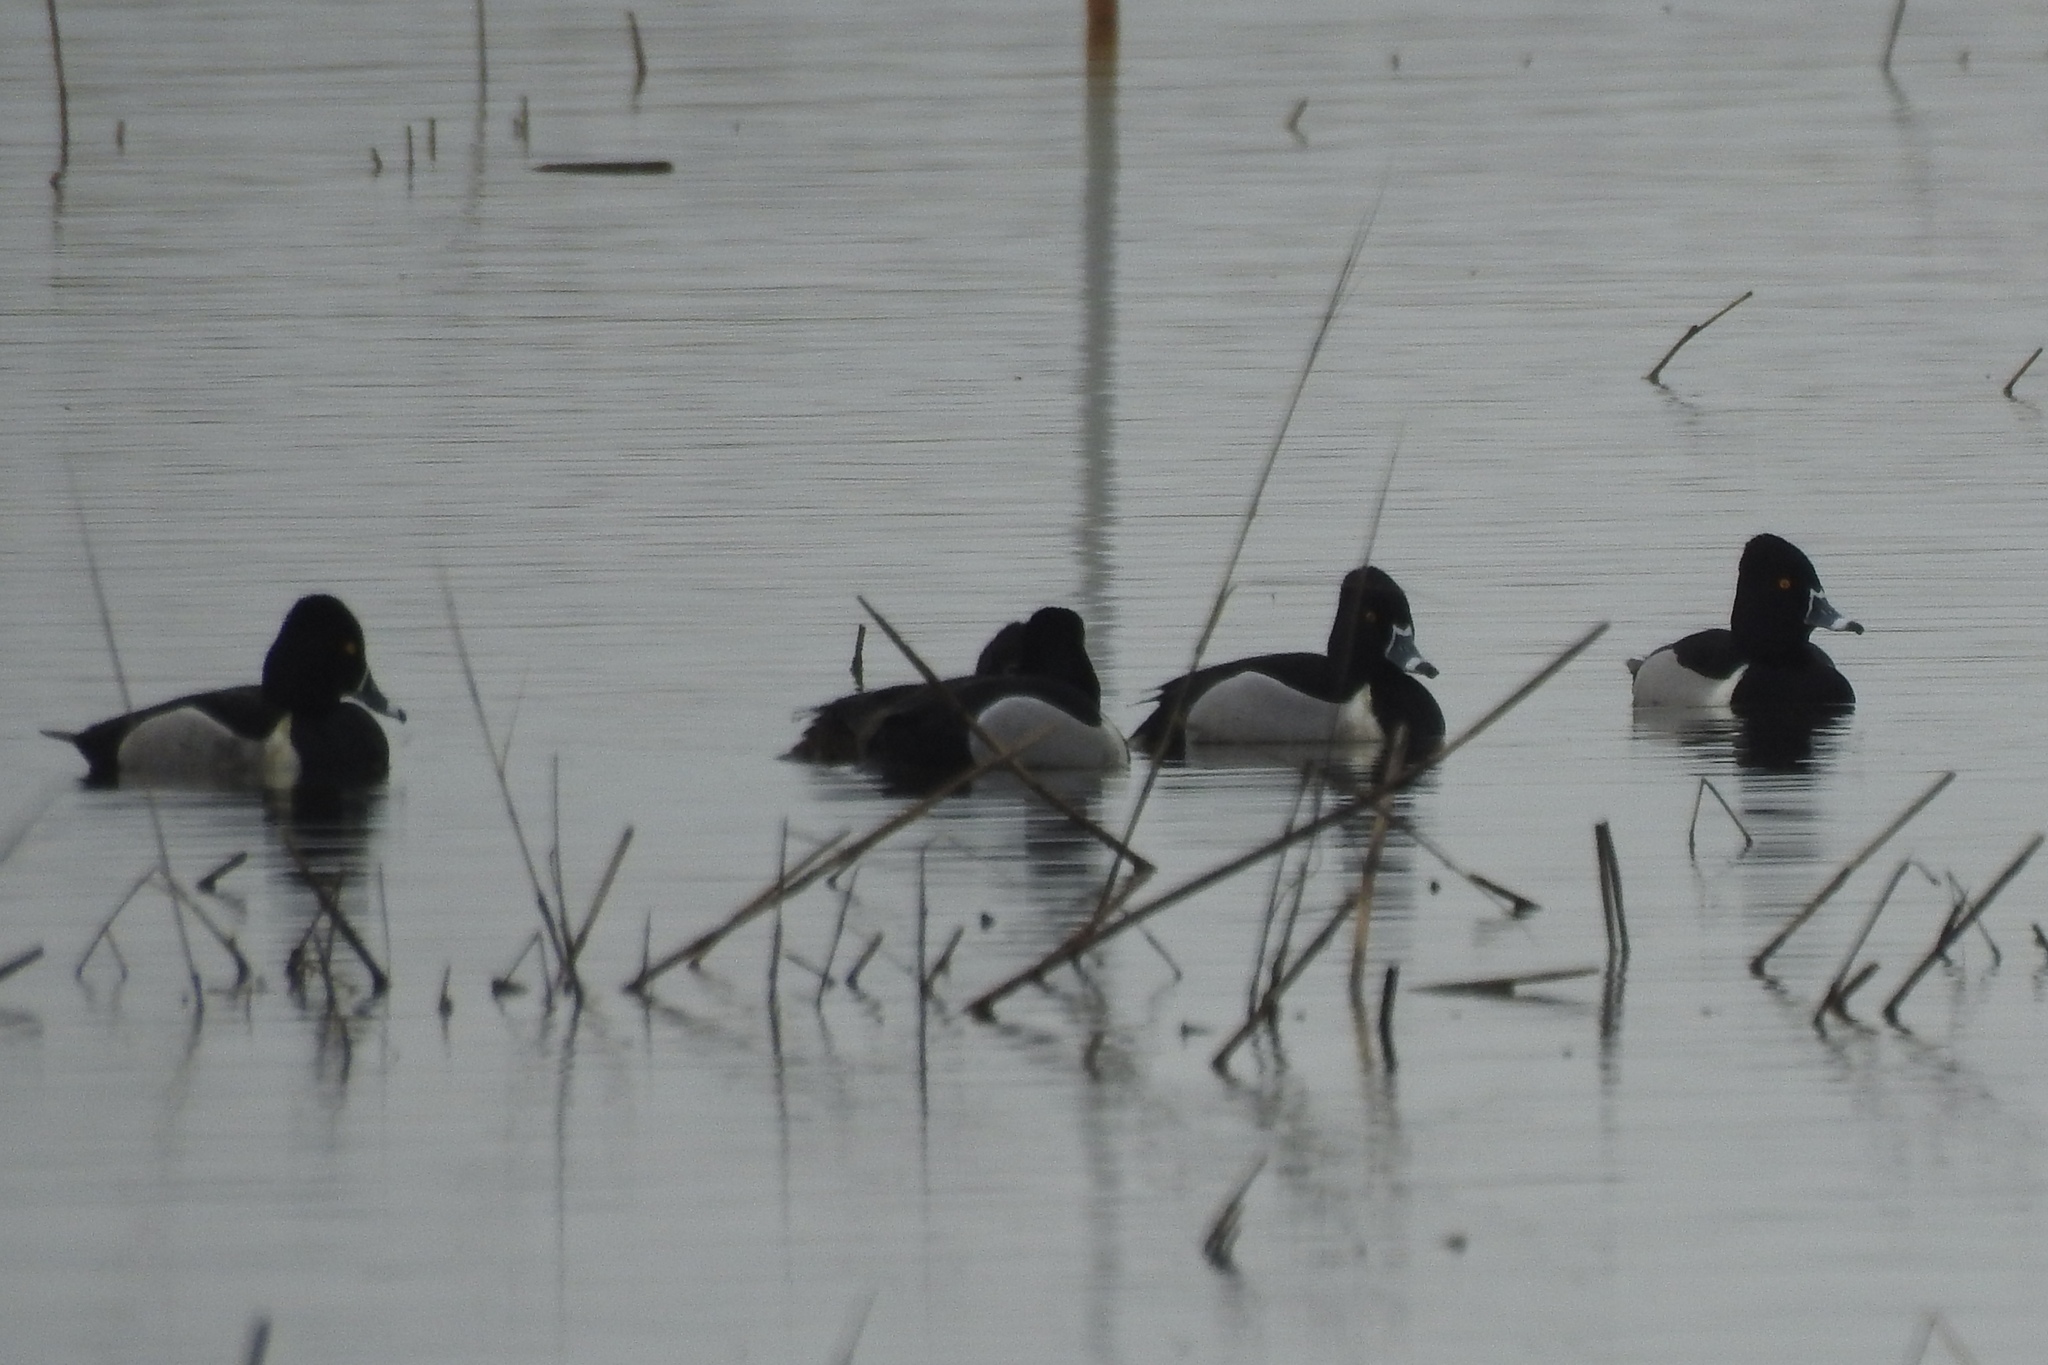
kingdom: Animalia
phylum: Chordata
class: Aves
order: Anseriformes
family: Anatidae
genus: Aythya
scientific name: Aythya collaris
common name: Ring-necked duck
